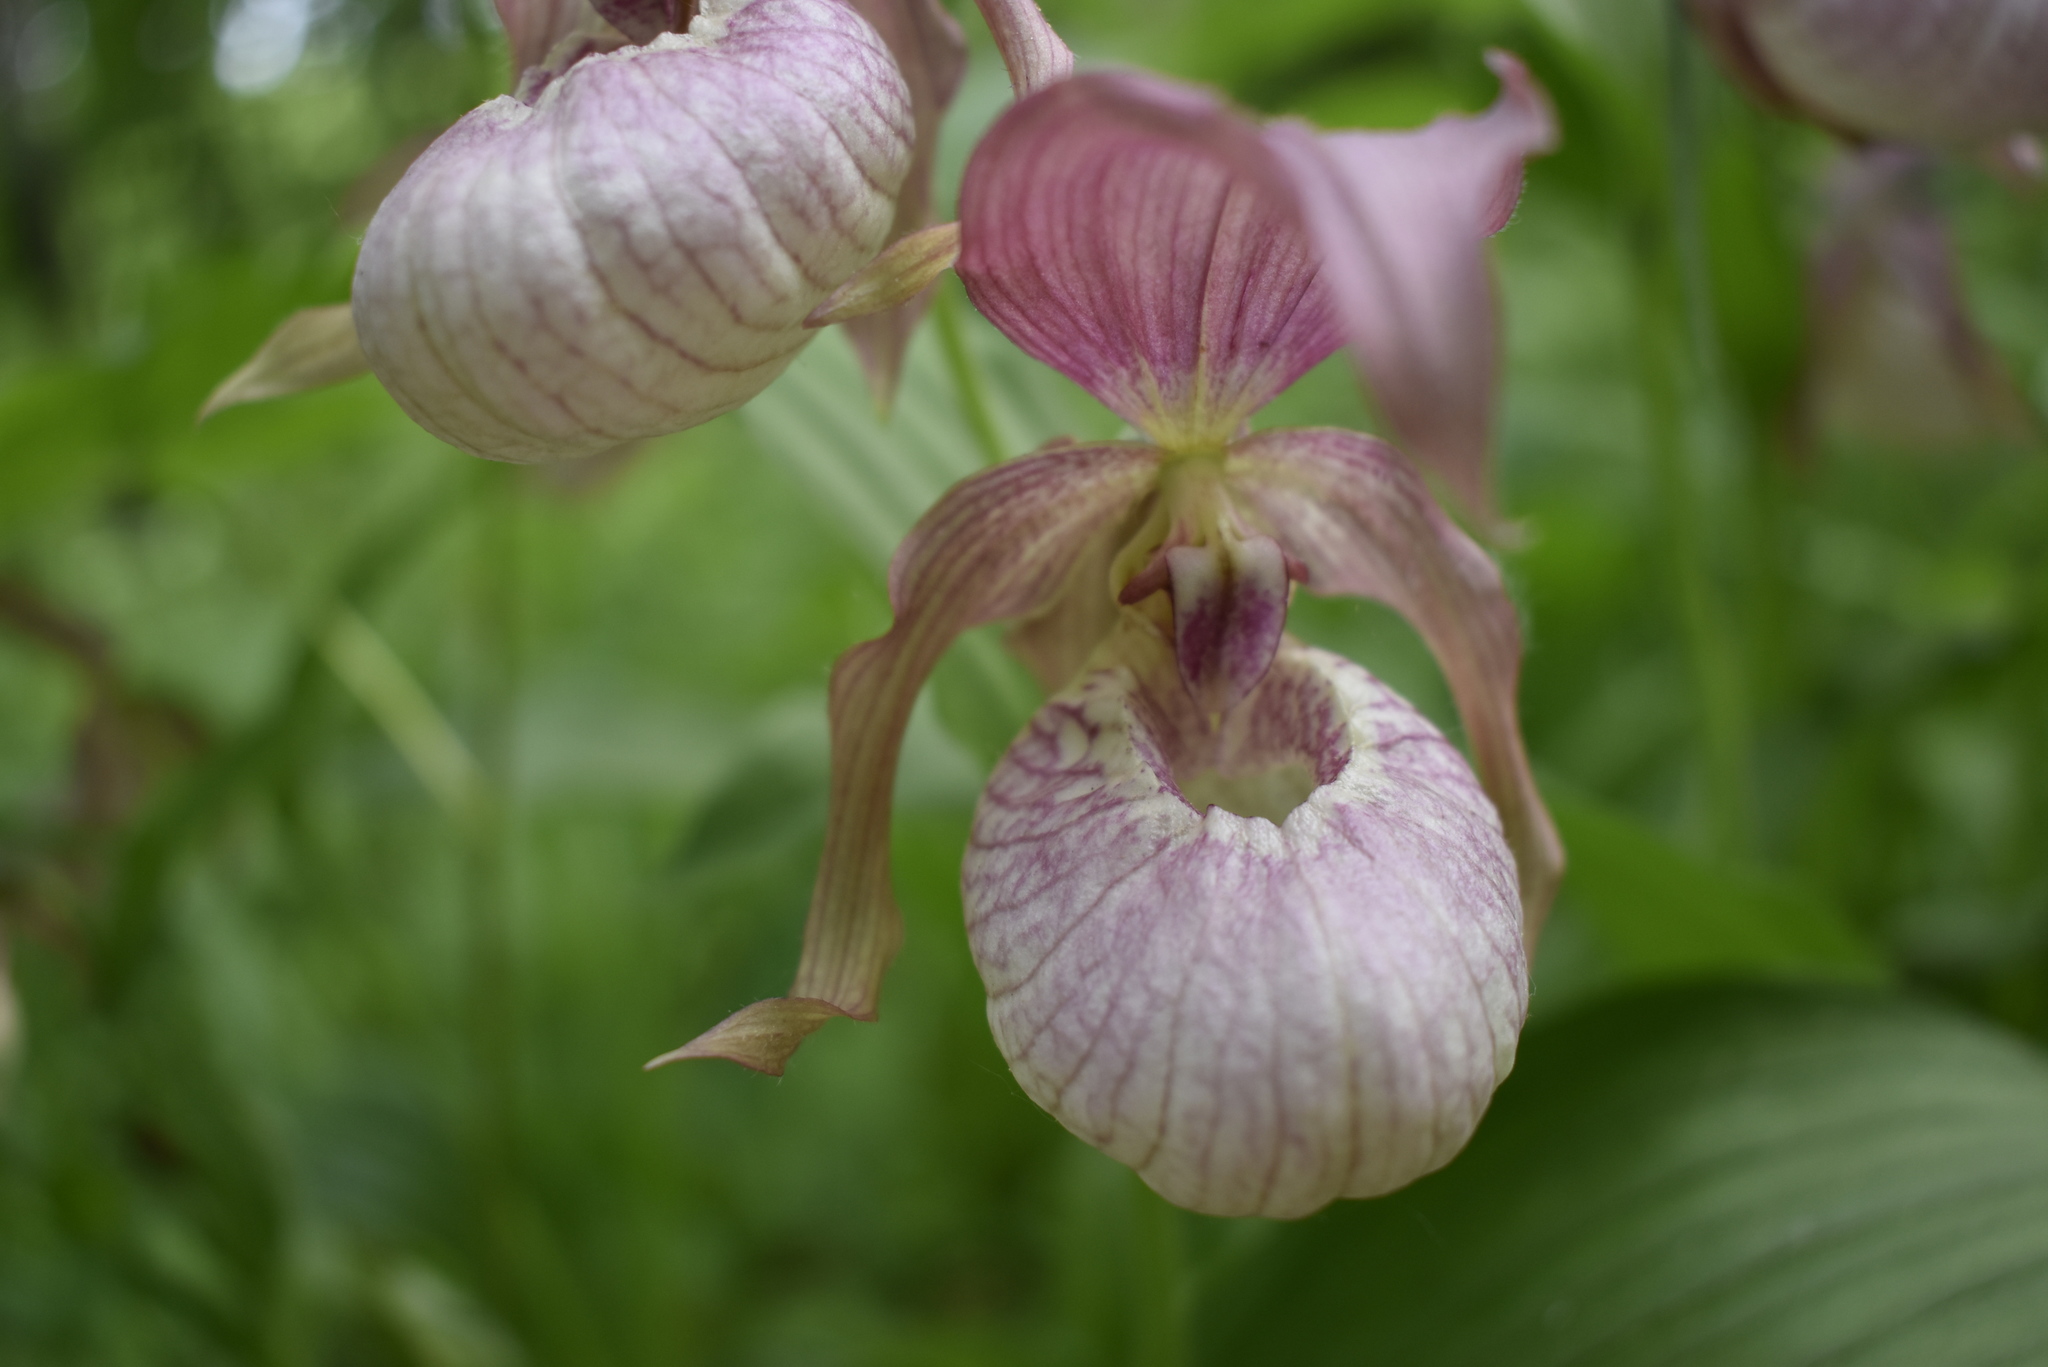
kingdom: Plantae
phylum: Tracheophyta
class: Liliopsida
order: Asparagales
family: Orchidaceae
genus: Cypripedium
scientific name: Cypripedium ventricosum
